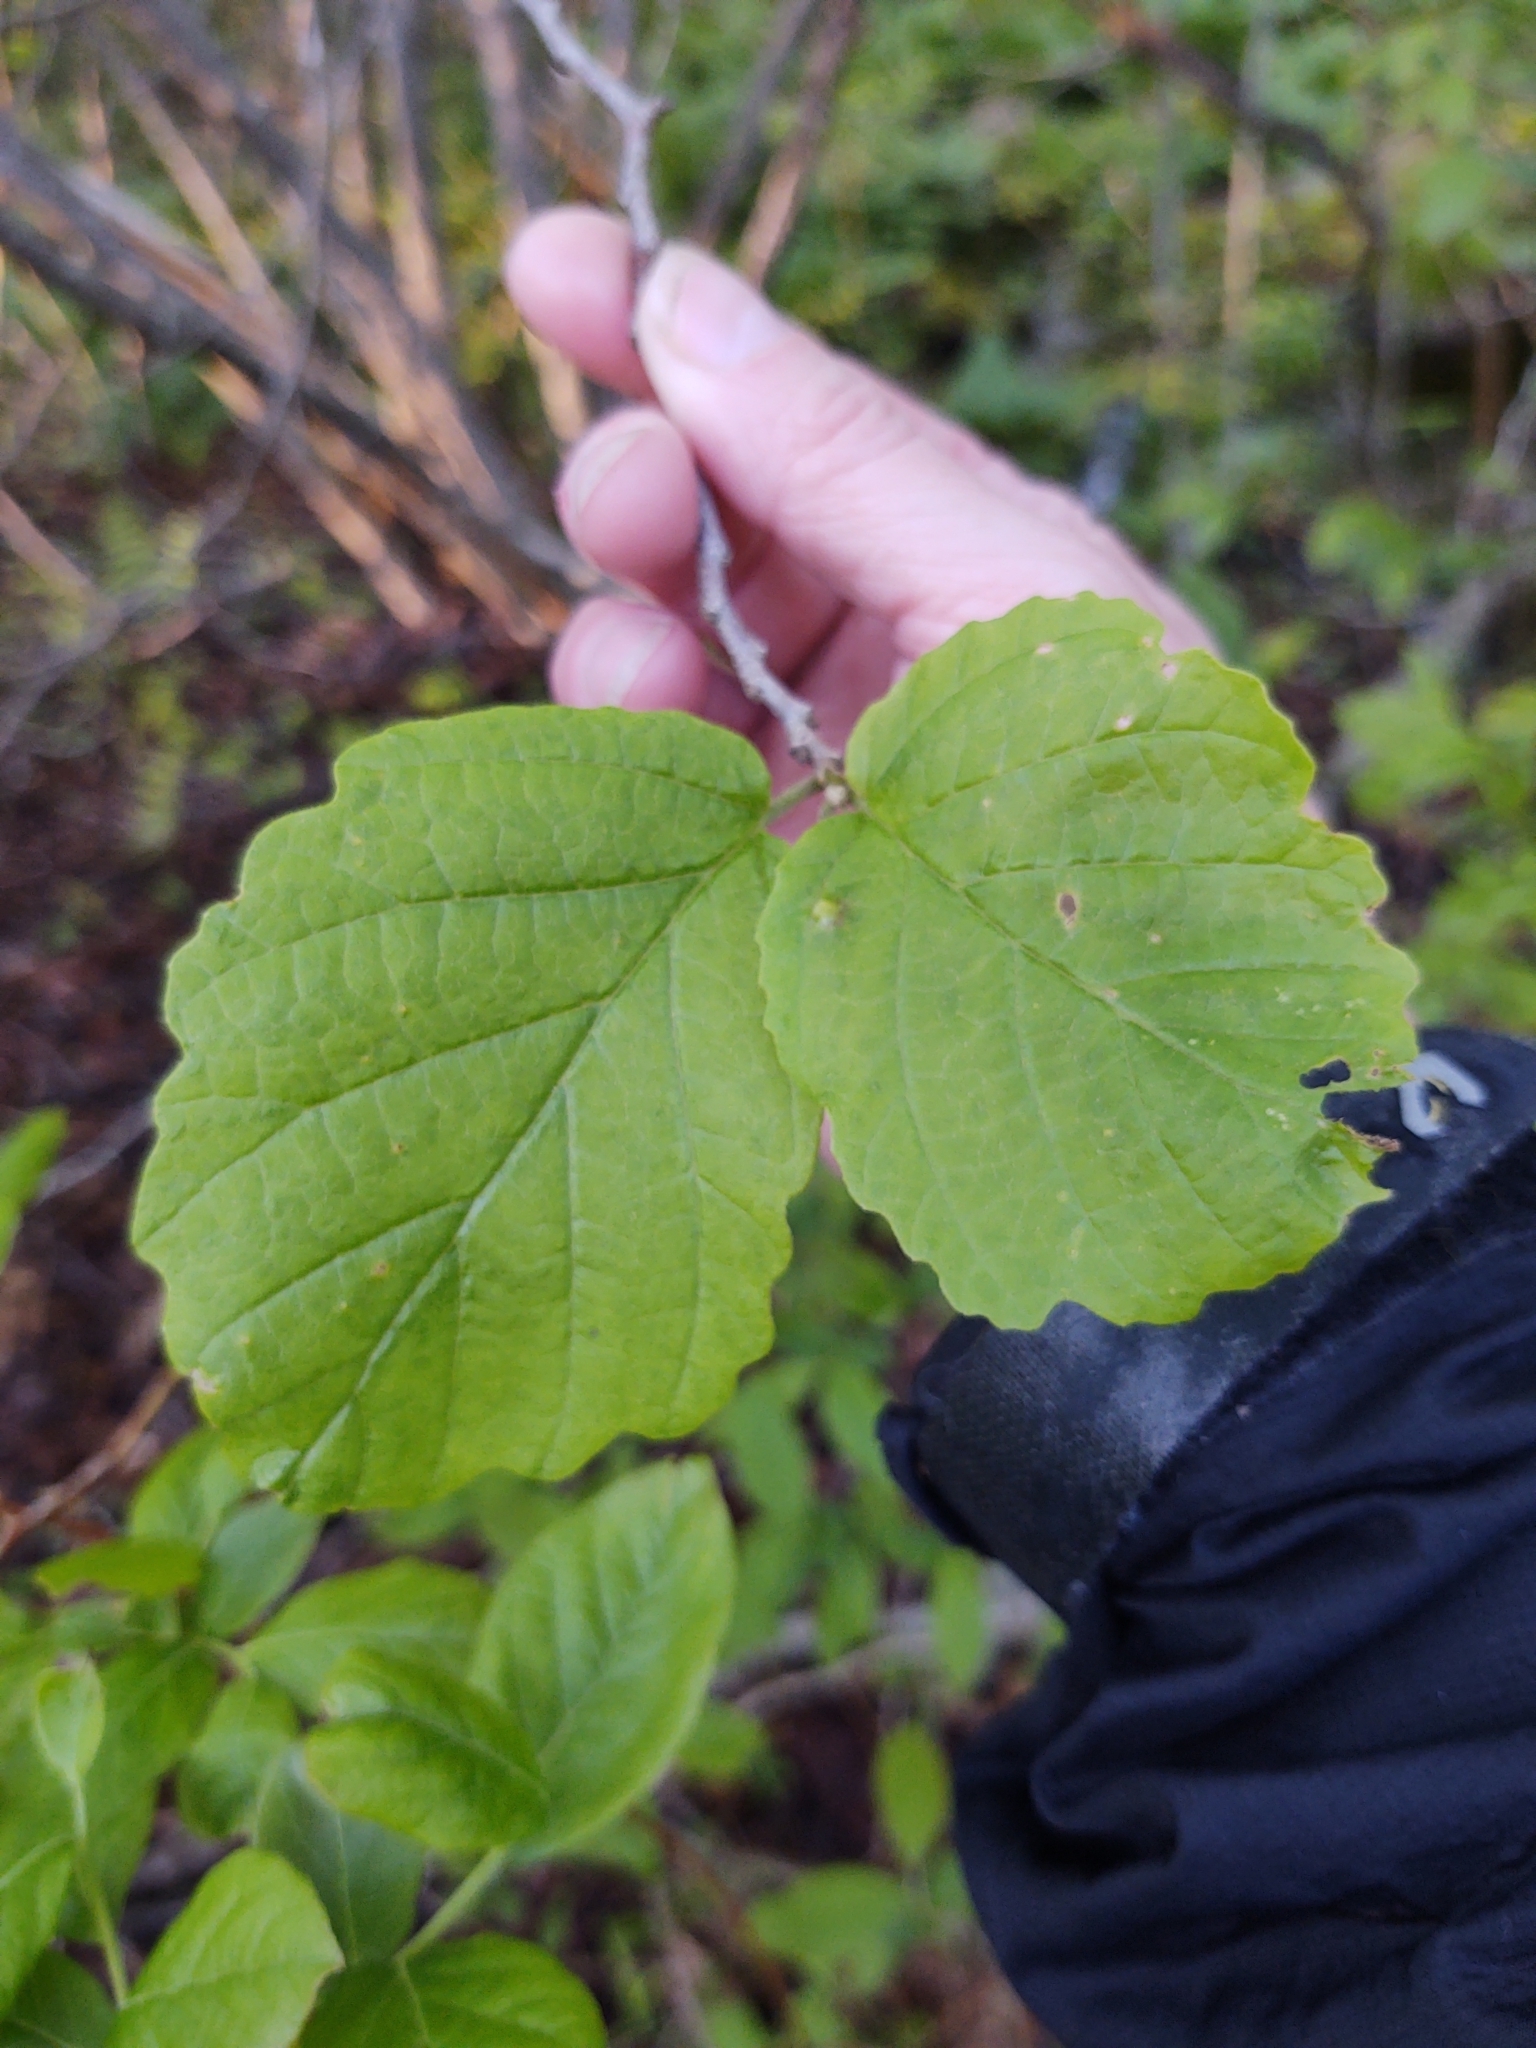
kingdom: Plantae
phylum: Tracheophyta
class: Magnoliopsida
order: Saxifragales
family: Hamamelidaceae
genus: Hamamelis
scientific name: Hamamelis virginiana
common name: Witch-hazel
